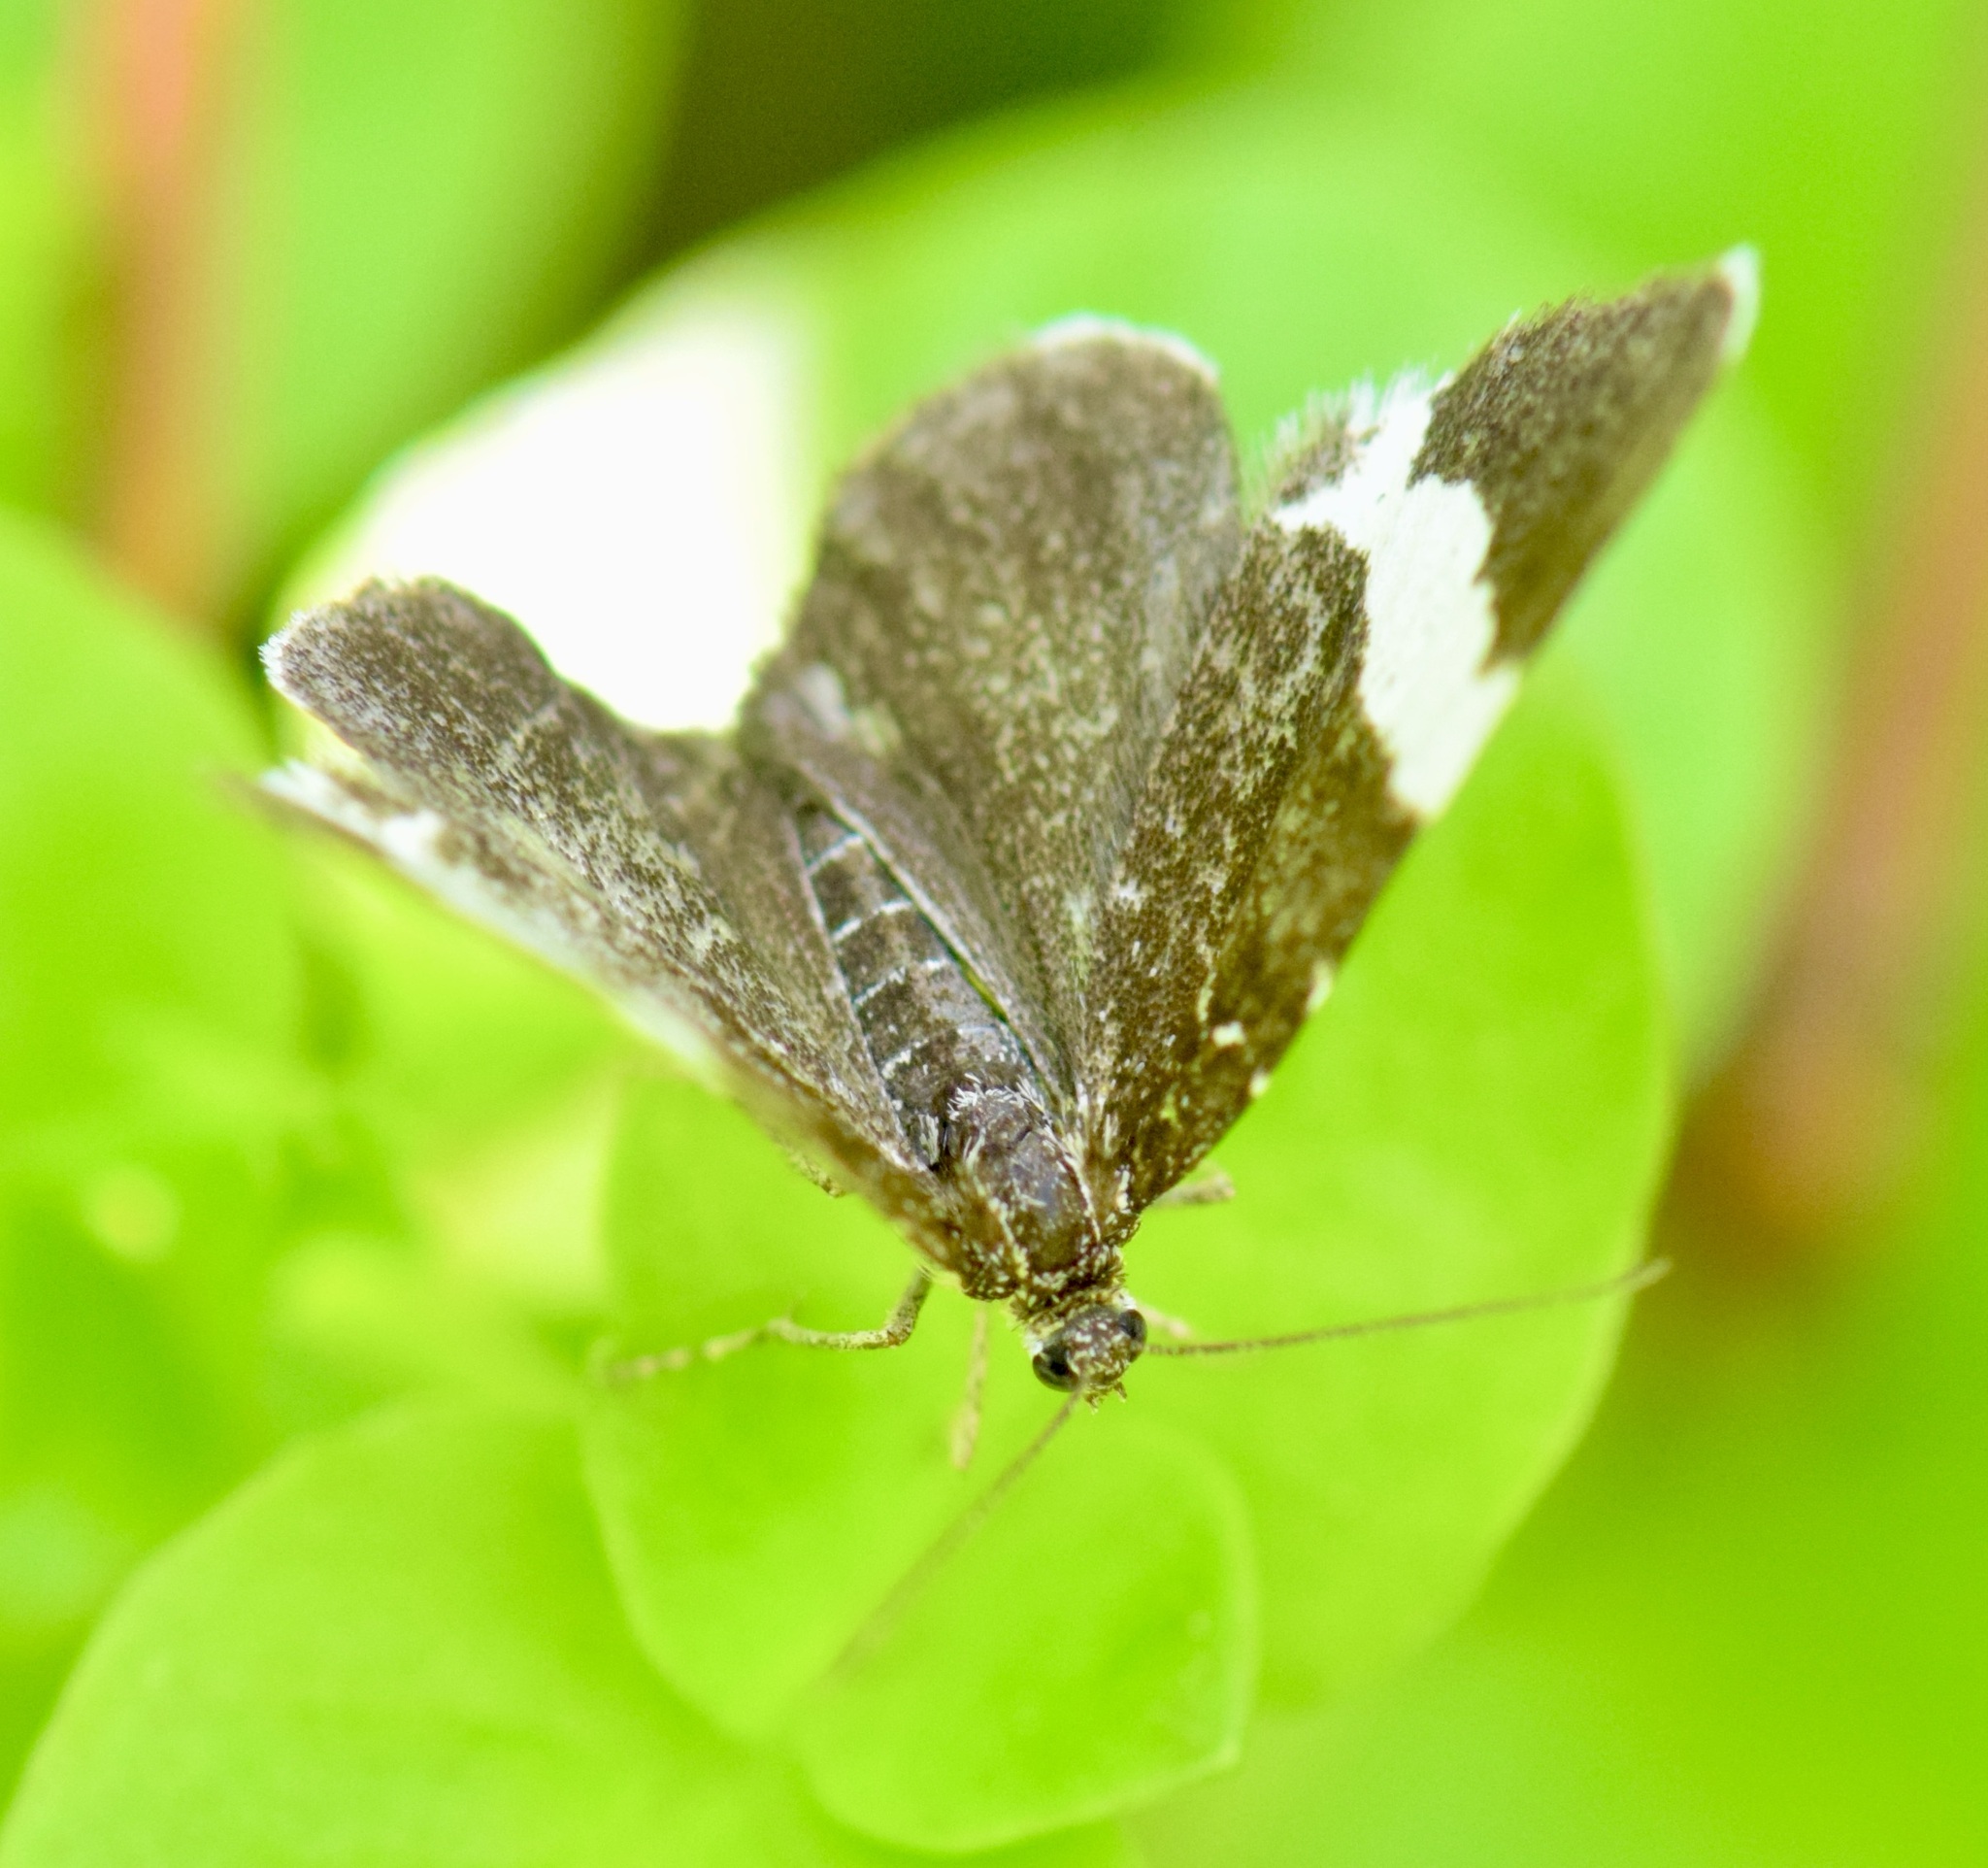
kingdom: Animalia
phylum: Arthropoda
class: Insecta
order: Lepidoptera
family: Geometridae
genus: Trichodezia
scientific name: Trichodezia albovittata
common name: White striped black
